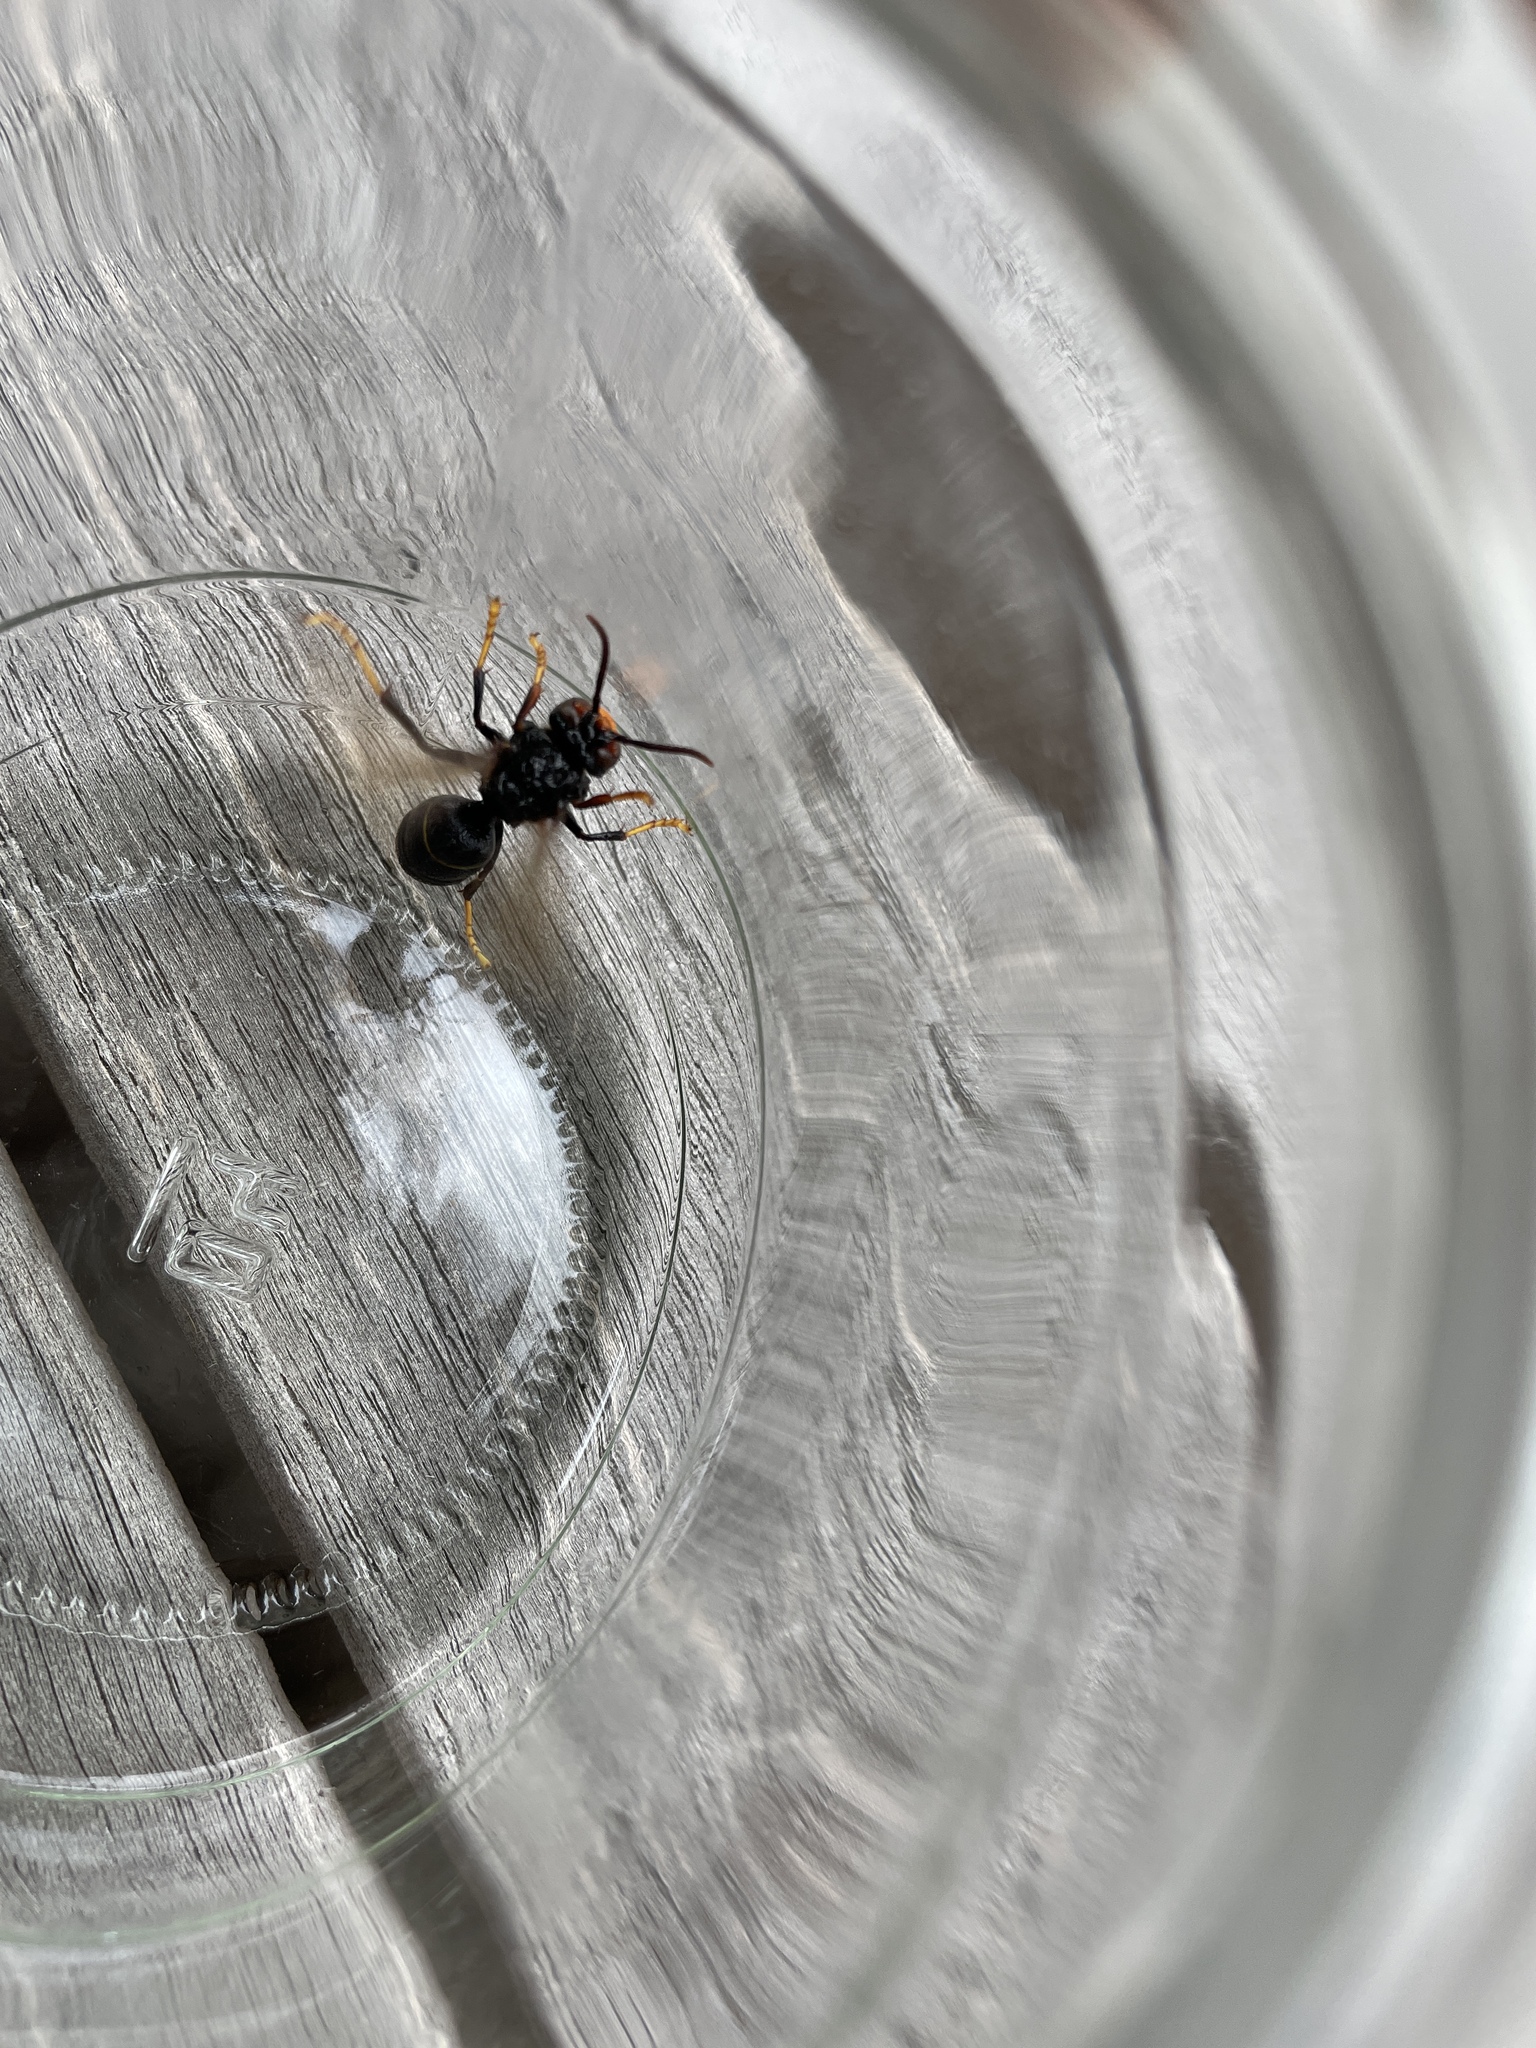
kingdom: Animalia
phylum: Arthropoda
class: Insecta
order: Hymenoptera
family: Vespidae
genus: Vespa
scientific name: Vespa velutina
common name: Asian hornet
